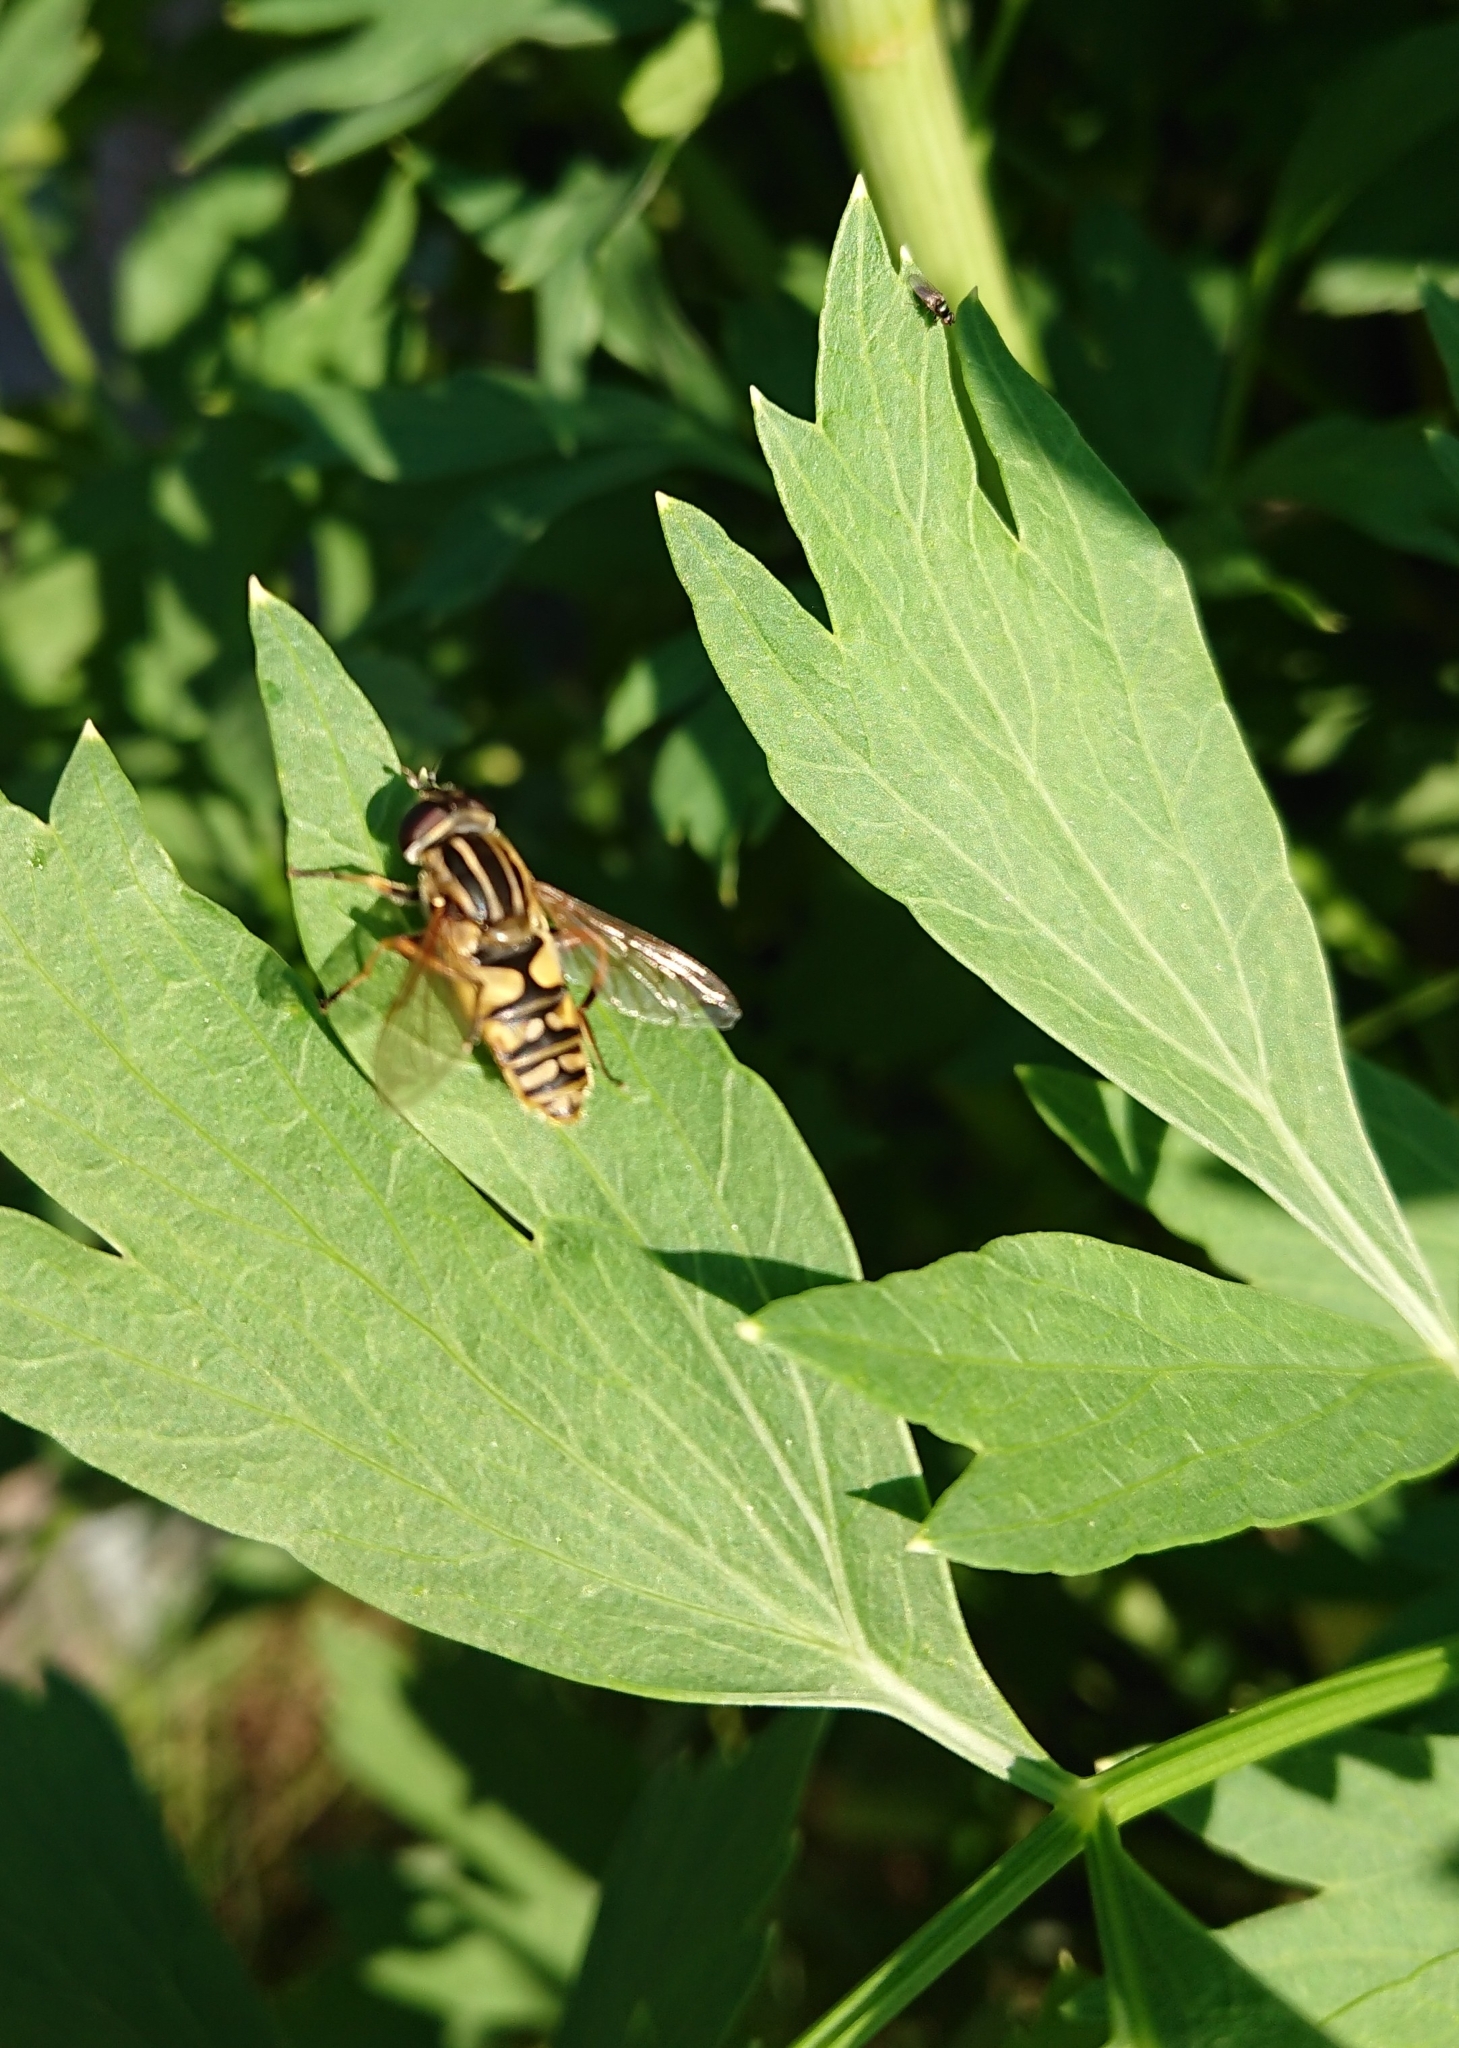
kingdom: Animalia
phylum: Arthropoda
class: Insecta
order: Diptera
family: Syrphidae
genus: Helophilus
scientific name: Helophilus pendulus
